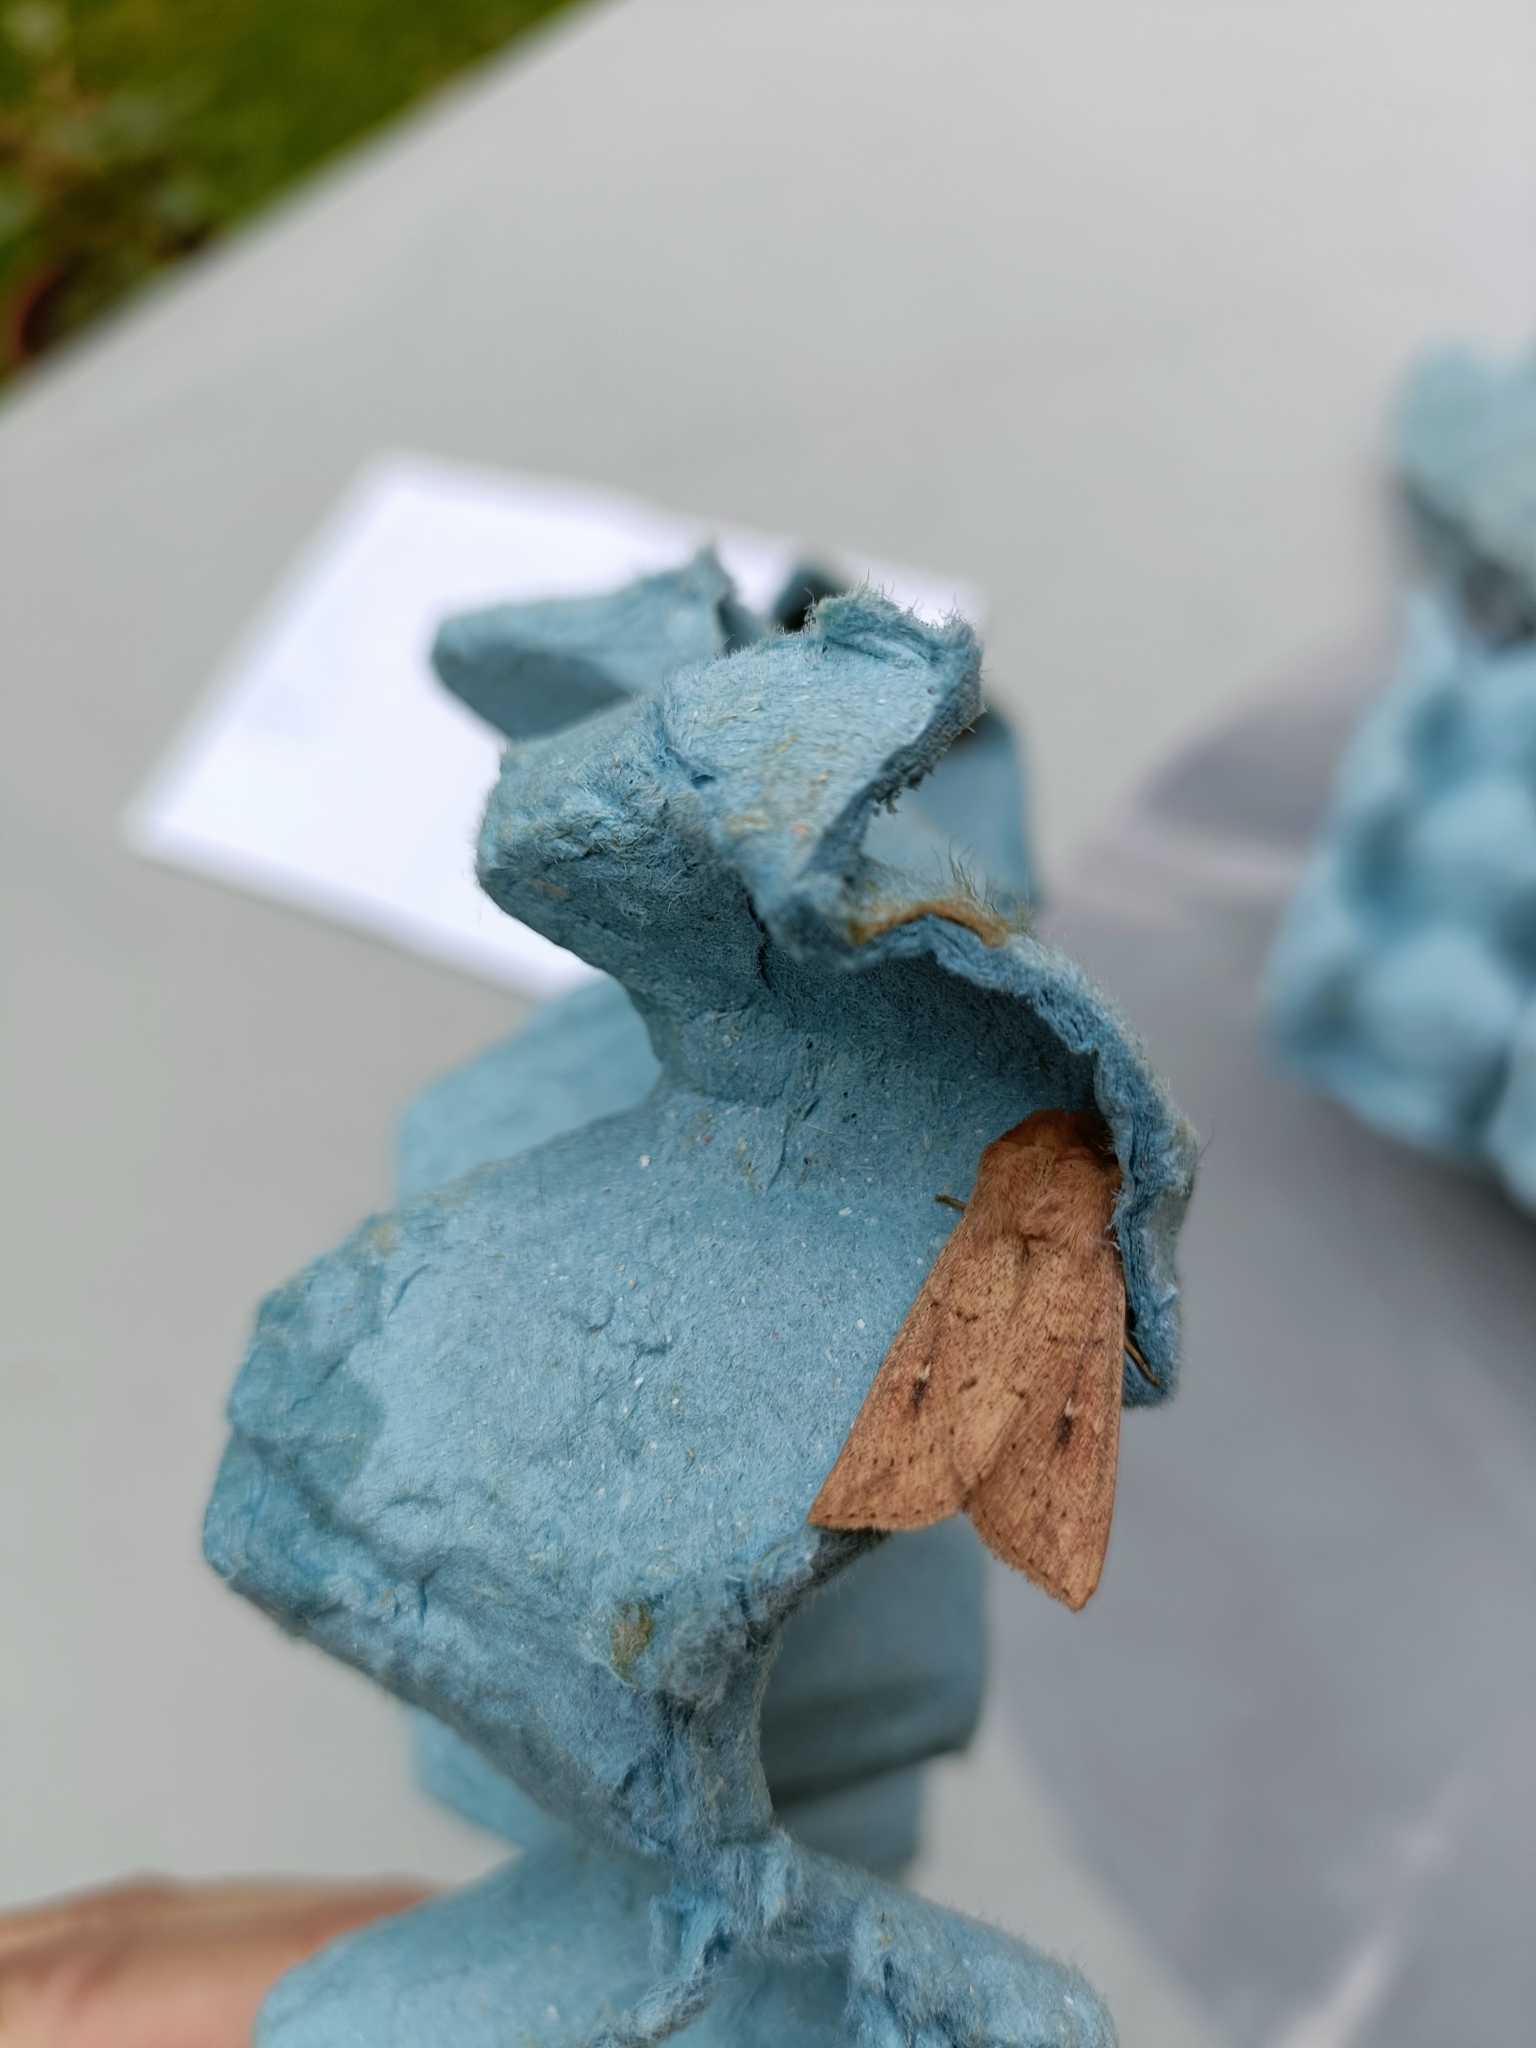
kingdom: Animalia
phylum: Arthropoda
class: Insecta
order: Lepidoptera
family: Noctuidae
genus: Mythimna
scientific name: Mythimna ferrago
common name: Clay
